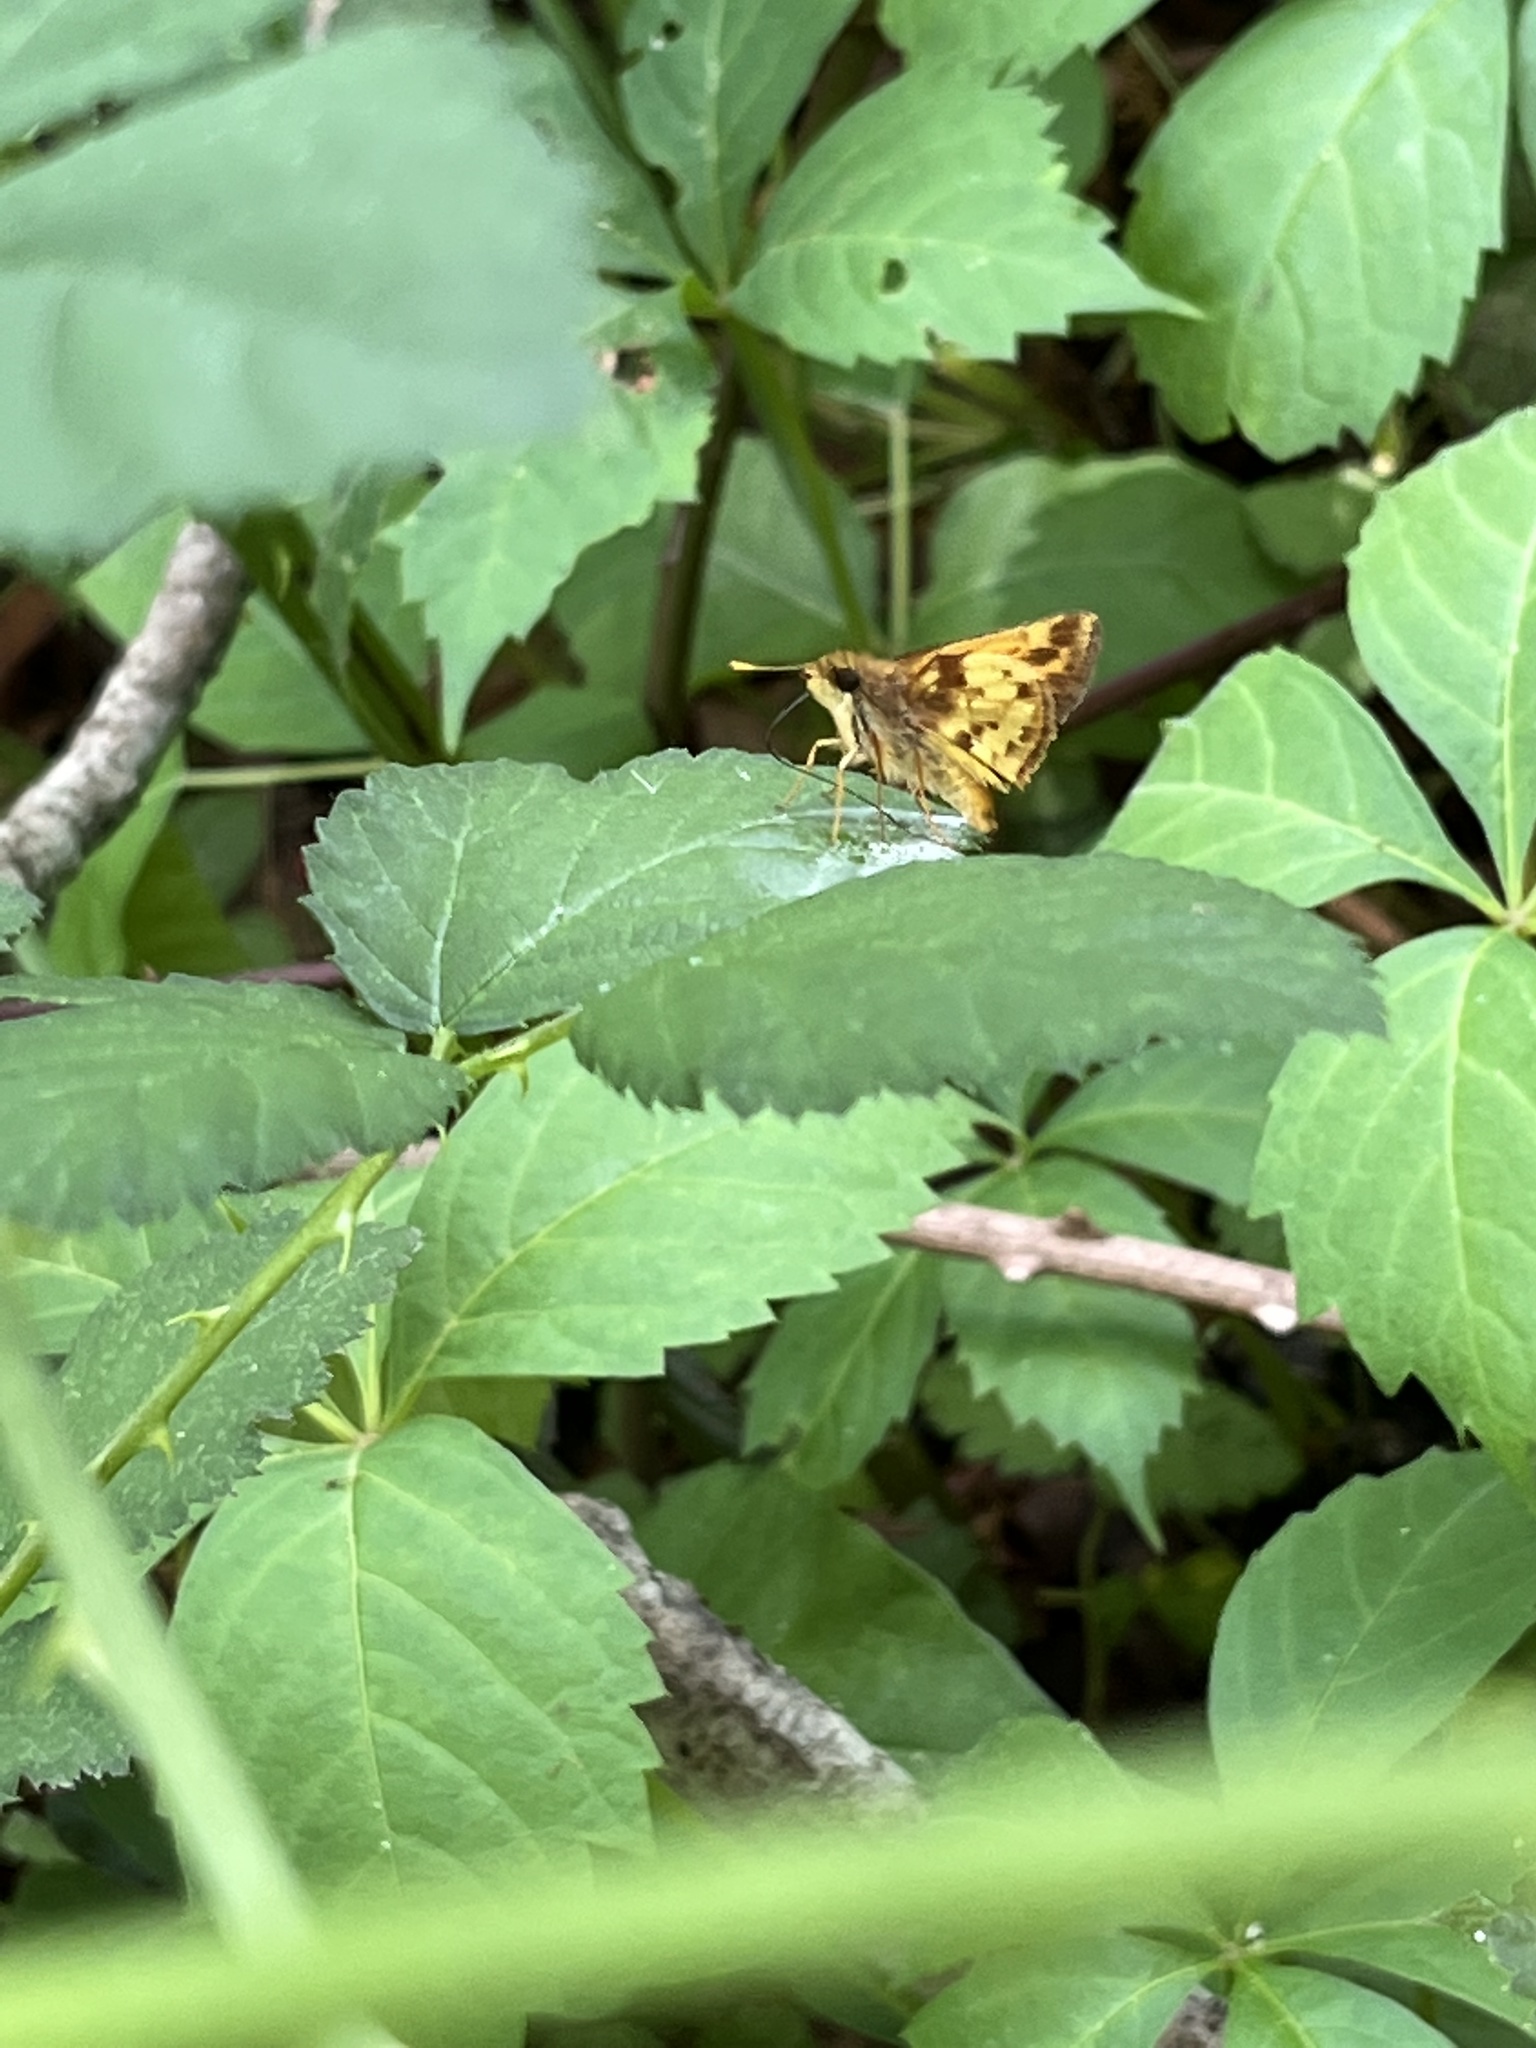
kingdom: Animalia
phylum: Arthropoda
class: Insecta
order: Lepidoptera
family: Hesperiidae
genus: Lon
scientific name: Lon zabulon
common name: Zabulon skipper
